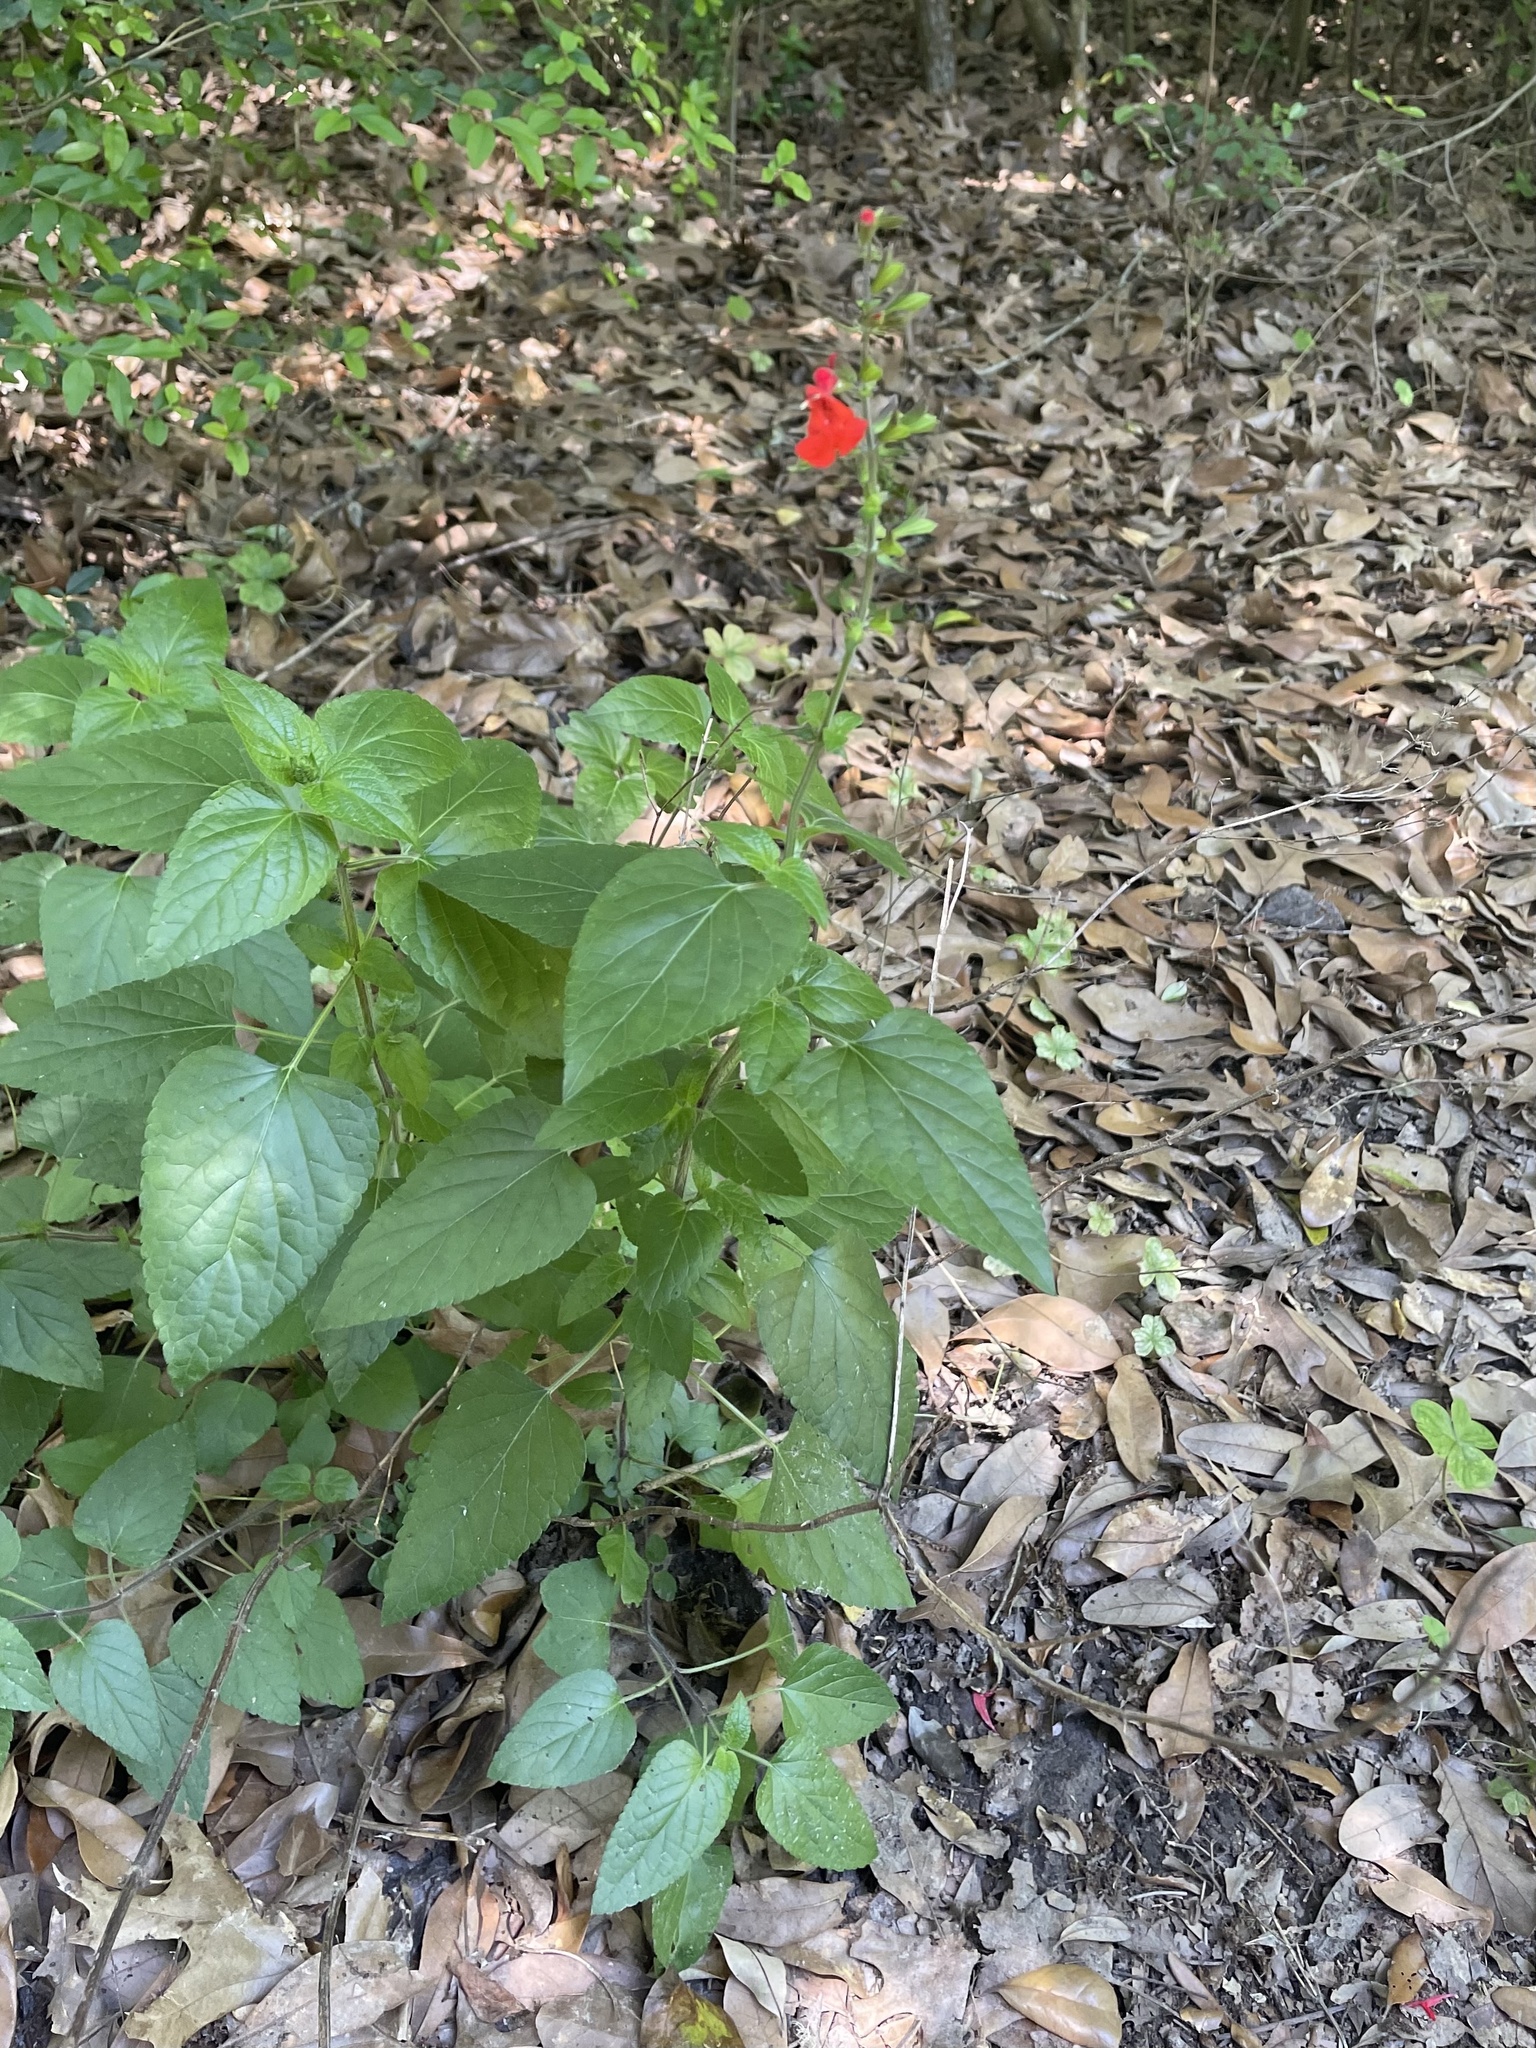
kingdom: Plantae
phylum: Tracheophyta
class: Magnoliopsida
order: Lamiales
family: Lamiaceae
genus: Salvia
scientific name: Salvia coccinea
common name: Blood sage
